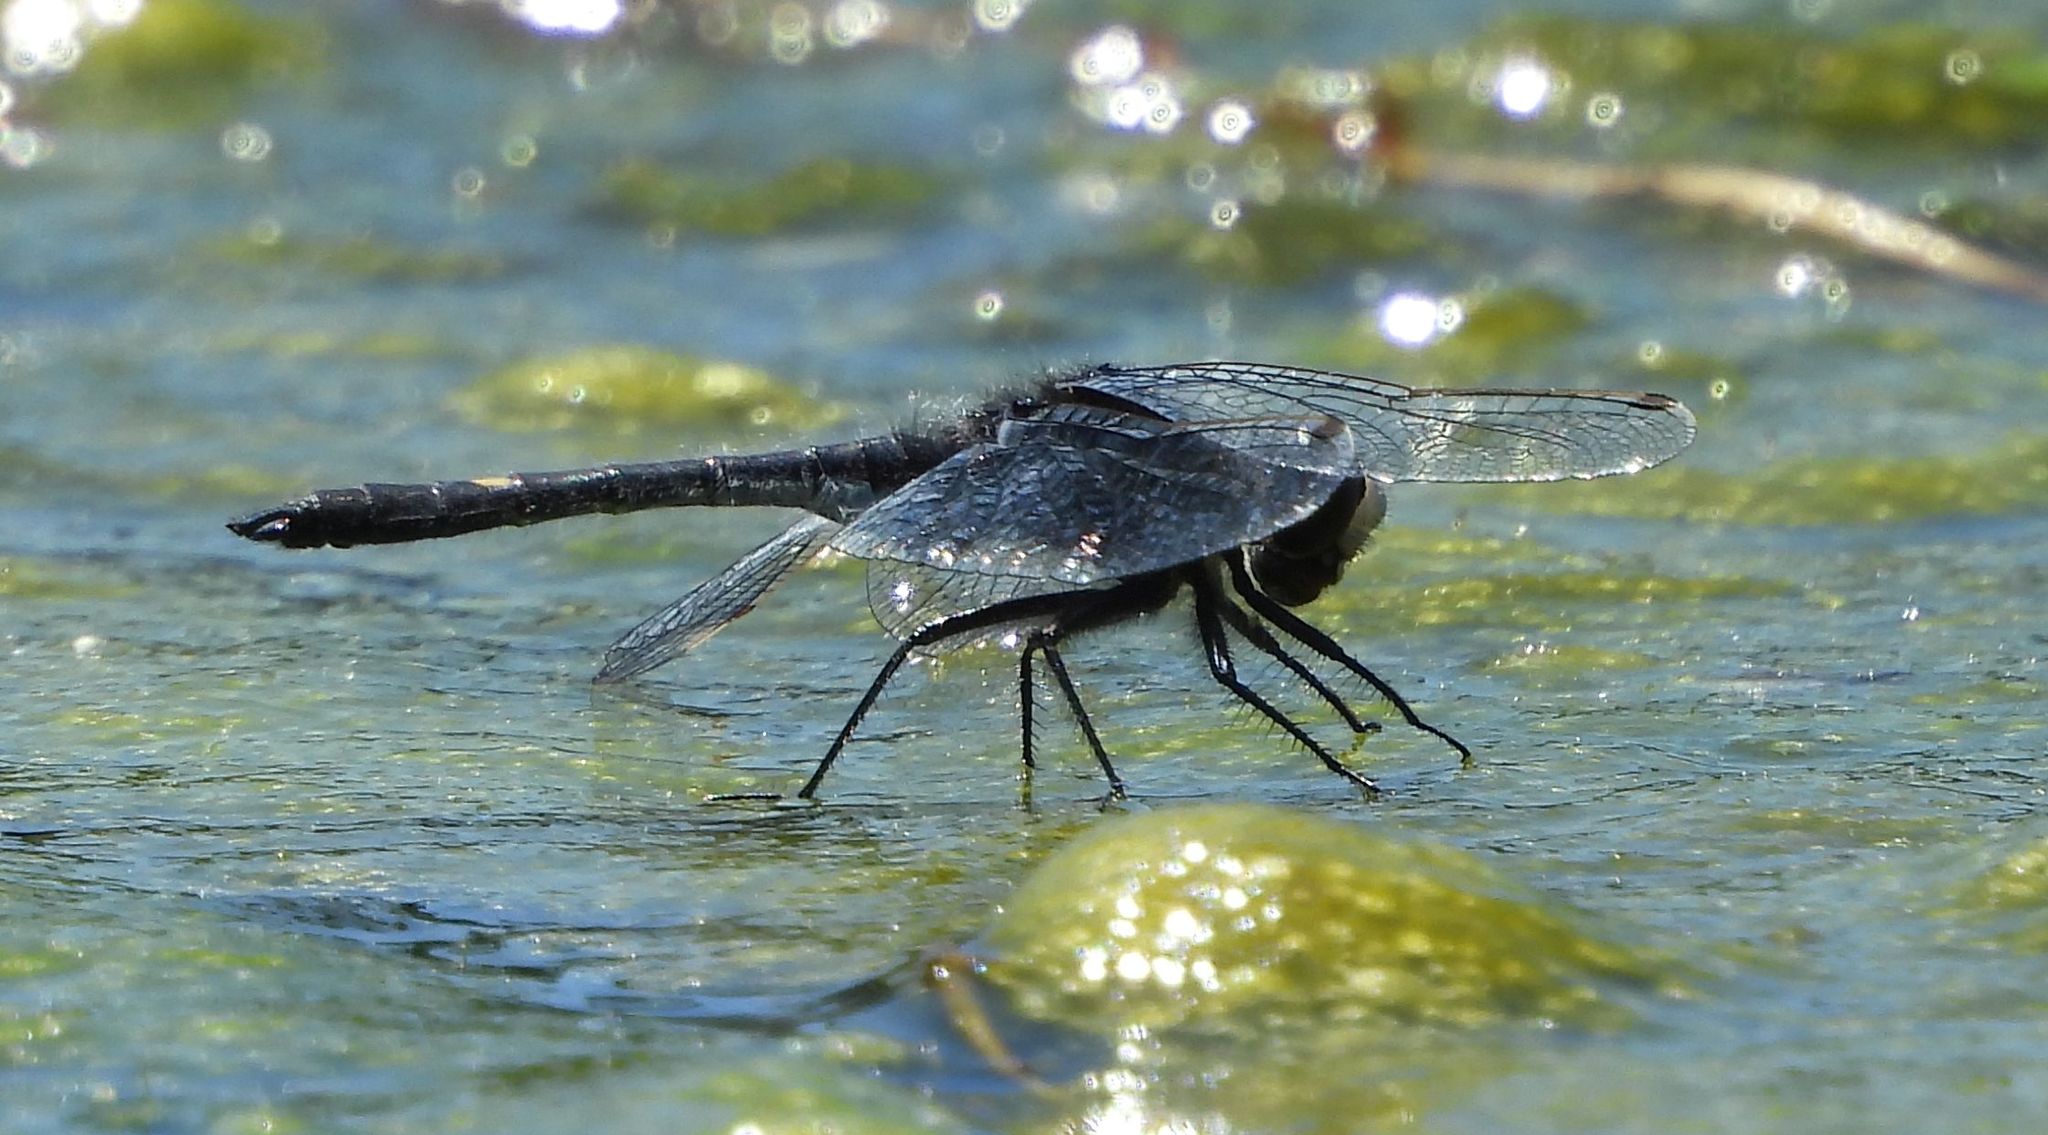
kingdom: Animalia
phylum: Arthropoda
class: Insecta
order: Odonata
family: Libellulidae
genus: Leucorrhinia
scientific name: Leucorrhinia intacta
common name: Dot-tailed whiteface
